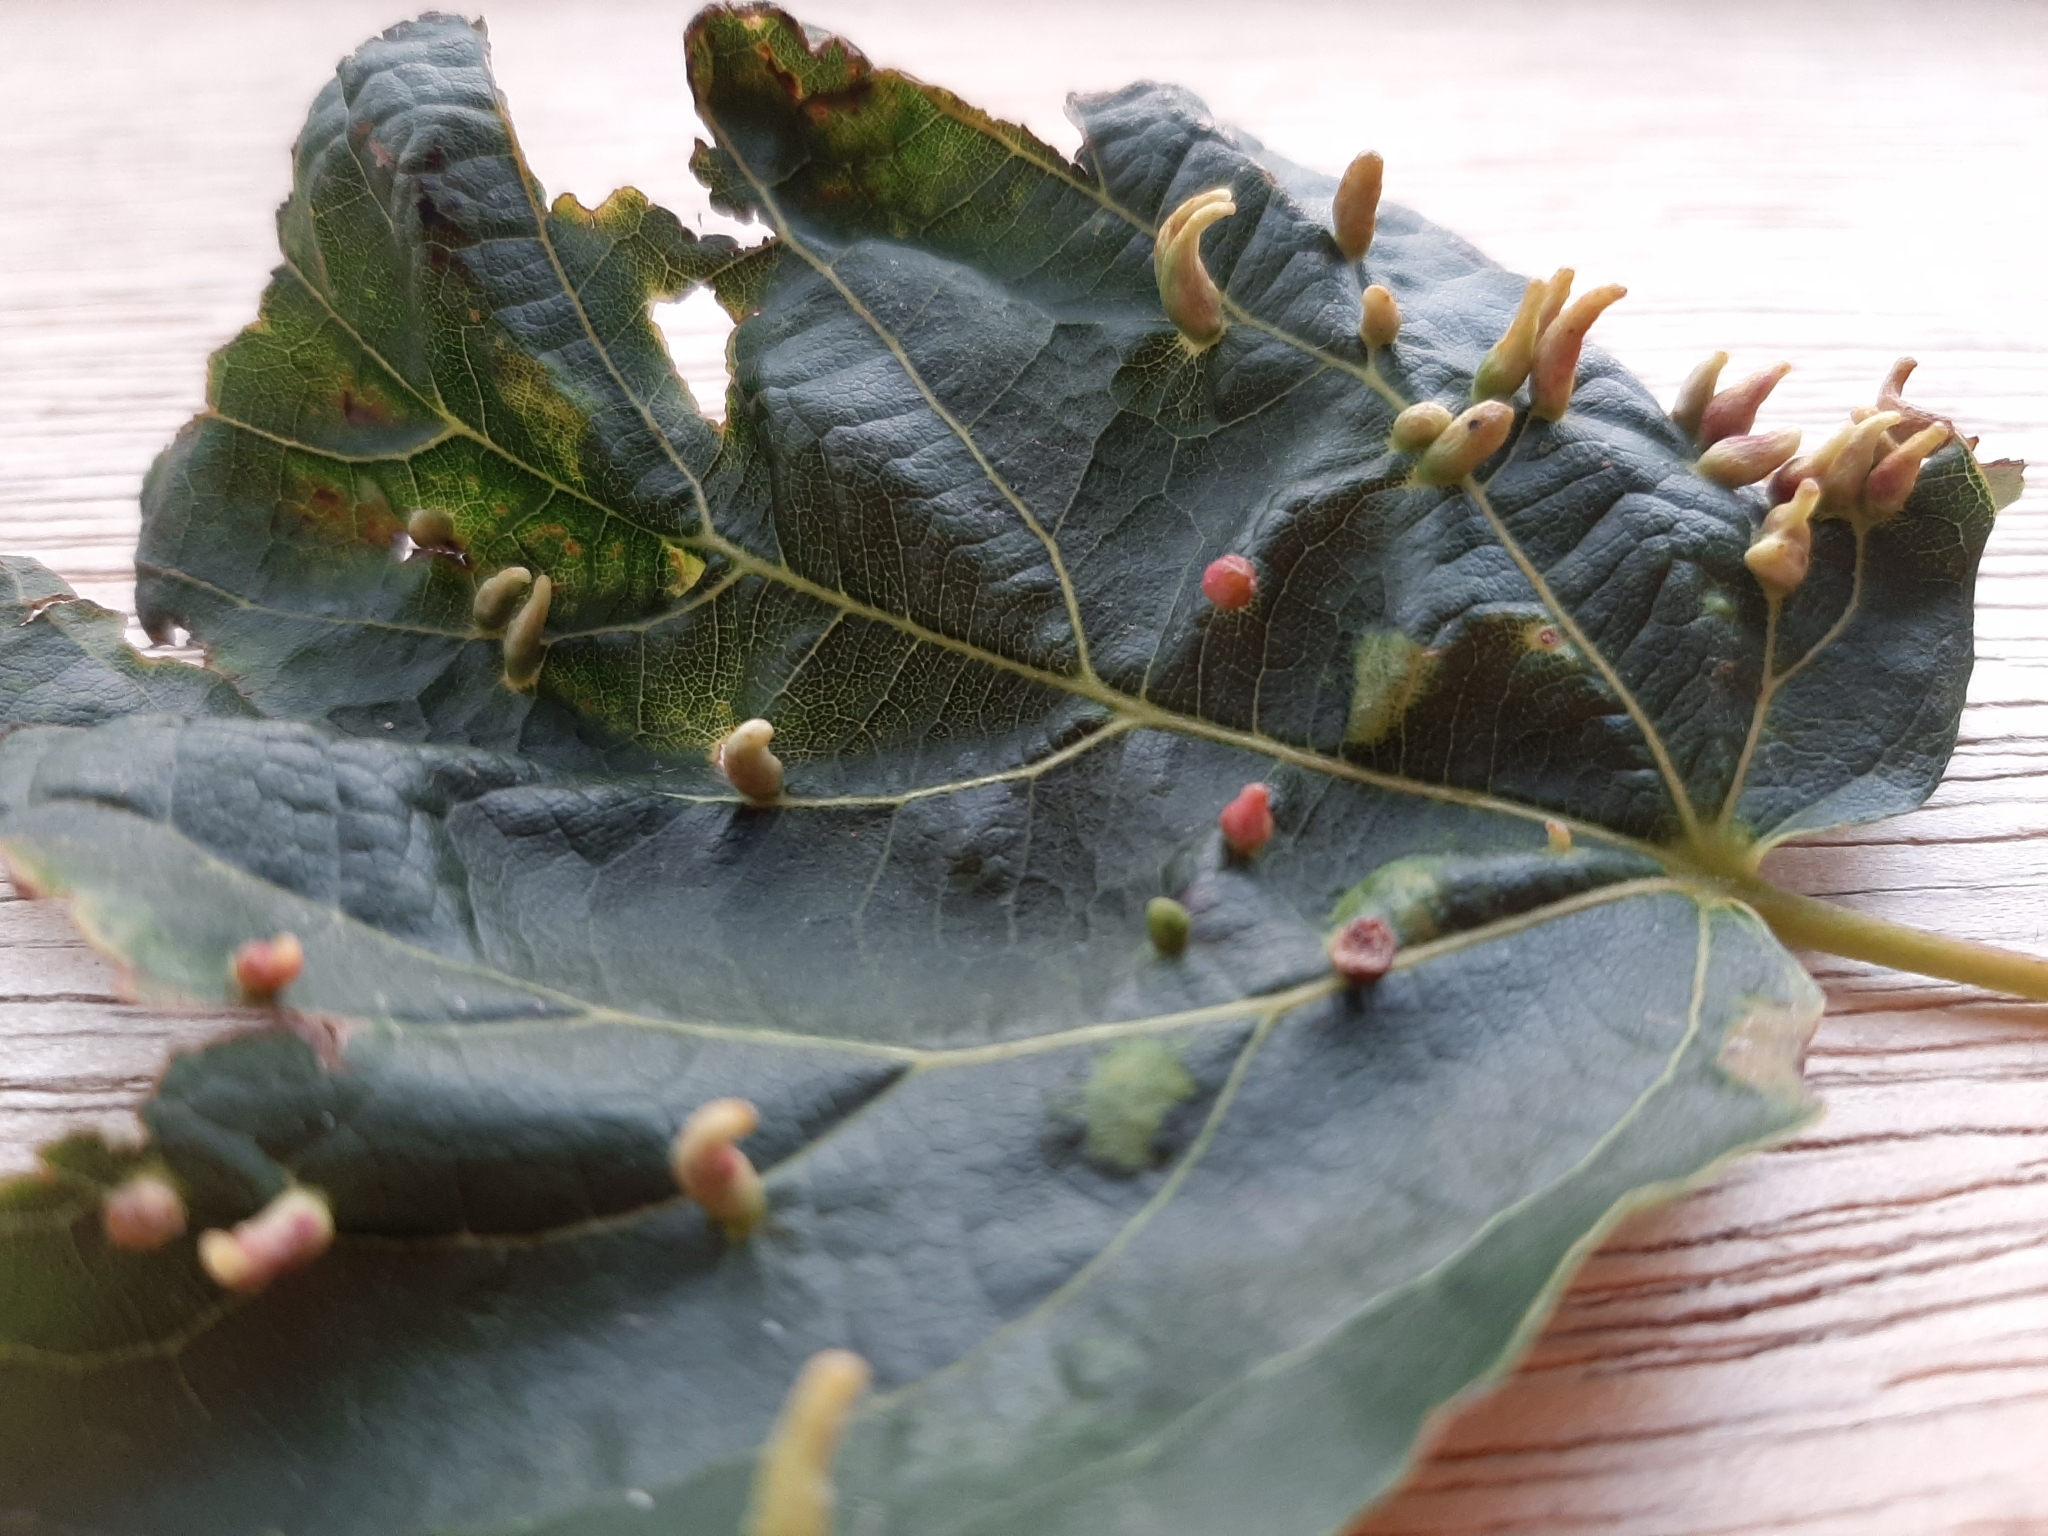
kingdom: Animalia
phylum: Arthropoda
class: Arachnida
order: Trombidiformes
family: Eriophyidae
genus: Eriophyes
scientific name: Eriophyes tiliae
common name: Red nail gall mite
